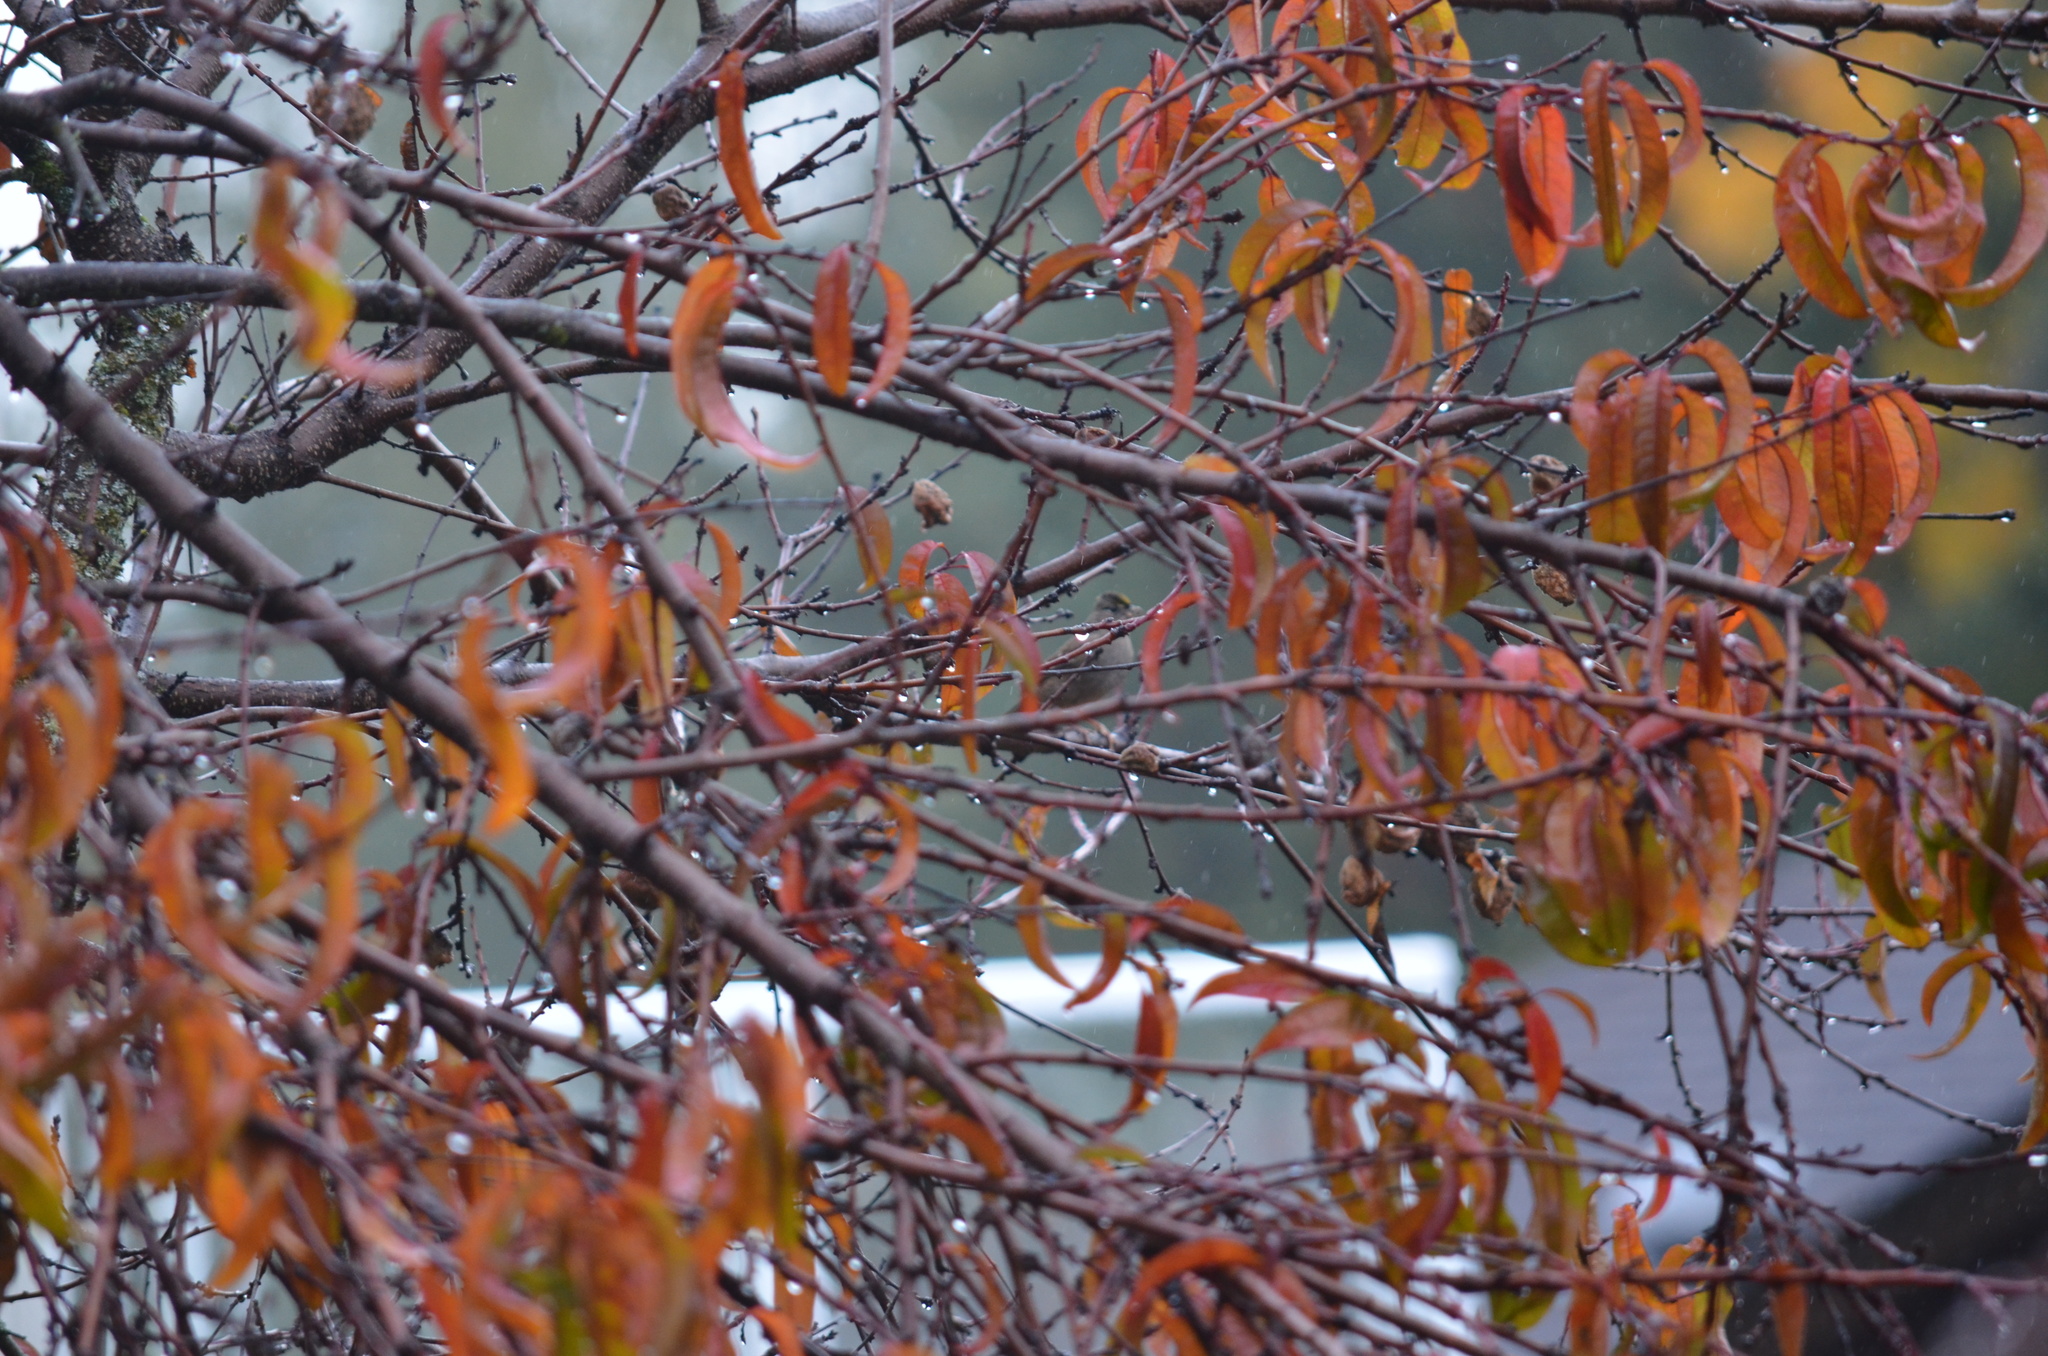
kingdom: Animalia
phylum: Chordata
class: Aves
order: Passeriformes
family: Passerellidae
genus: Zonotrichia
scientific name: Zonotrichia atricapilla
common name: Golden-crowned sparrow
